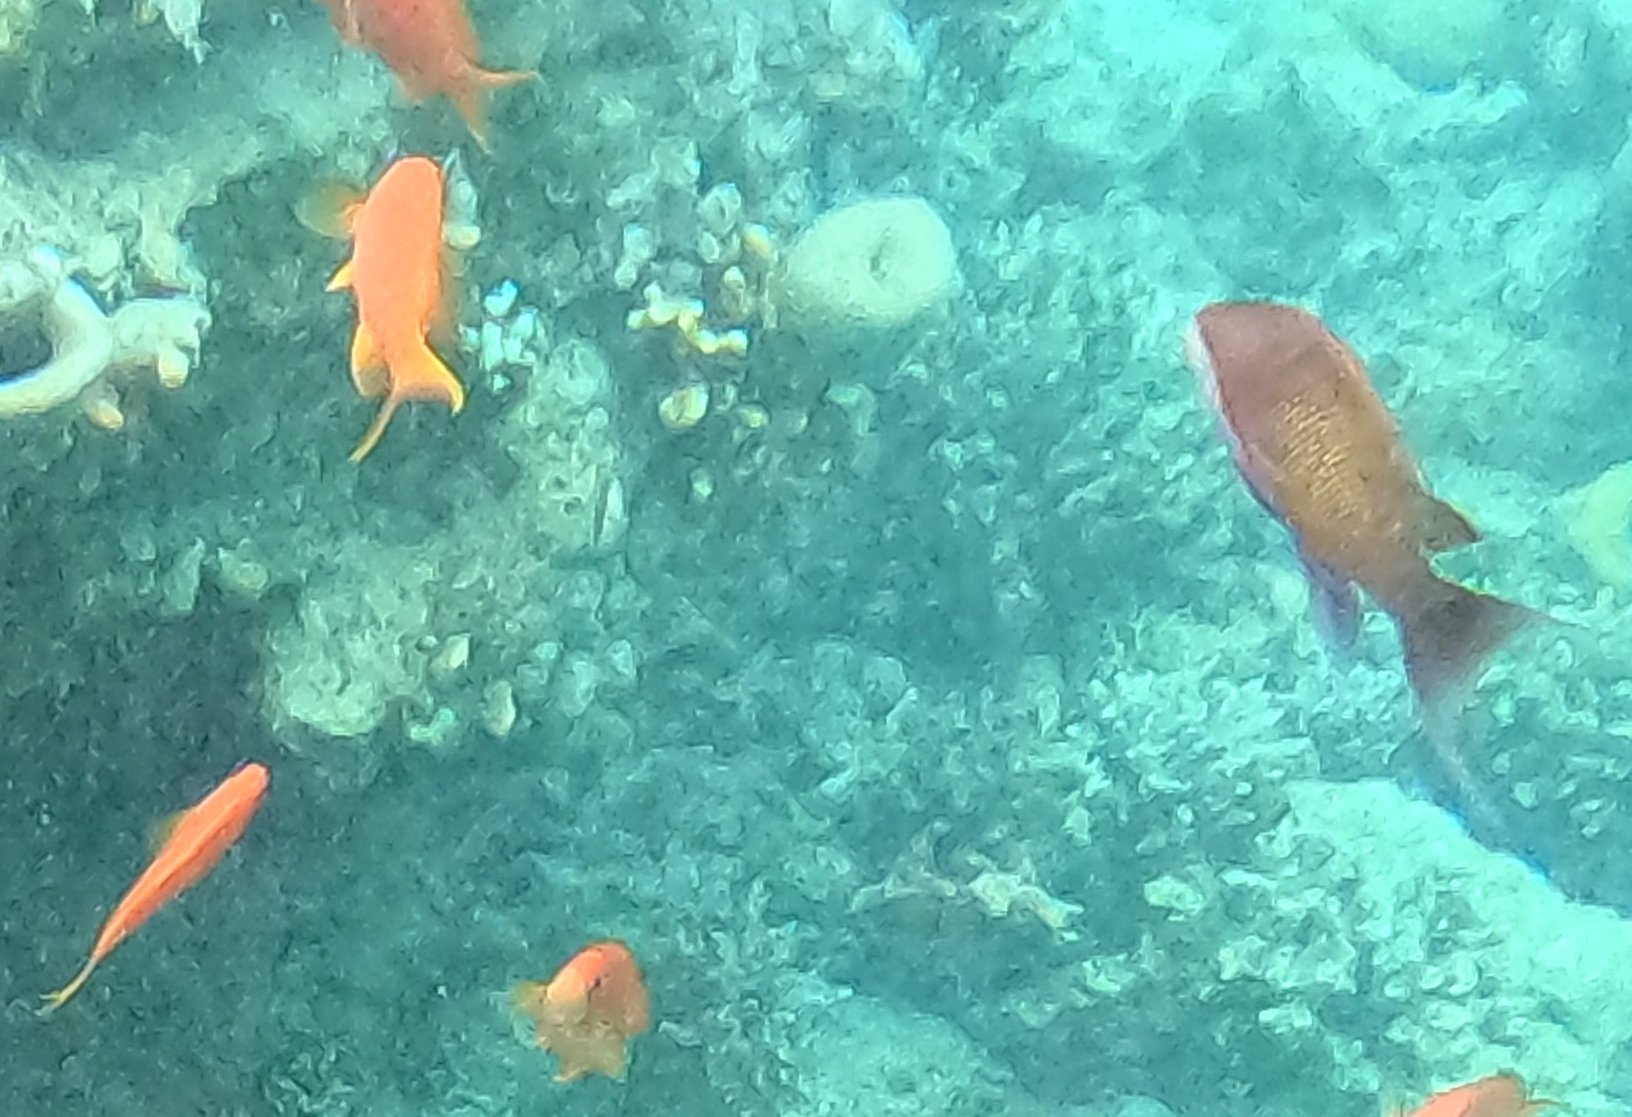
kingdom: Animalia
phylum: Chordata
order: Perciformes
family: Serranidae
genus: Pseudanthias
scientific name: Pseudanthias squamipinnis
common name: Scalefin anthias
